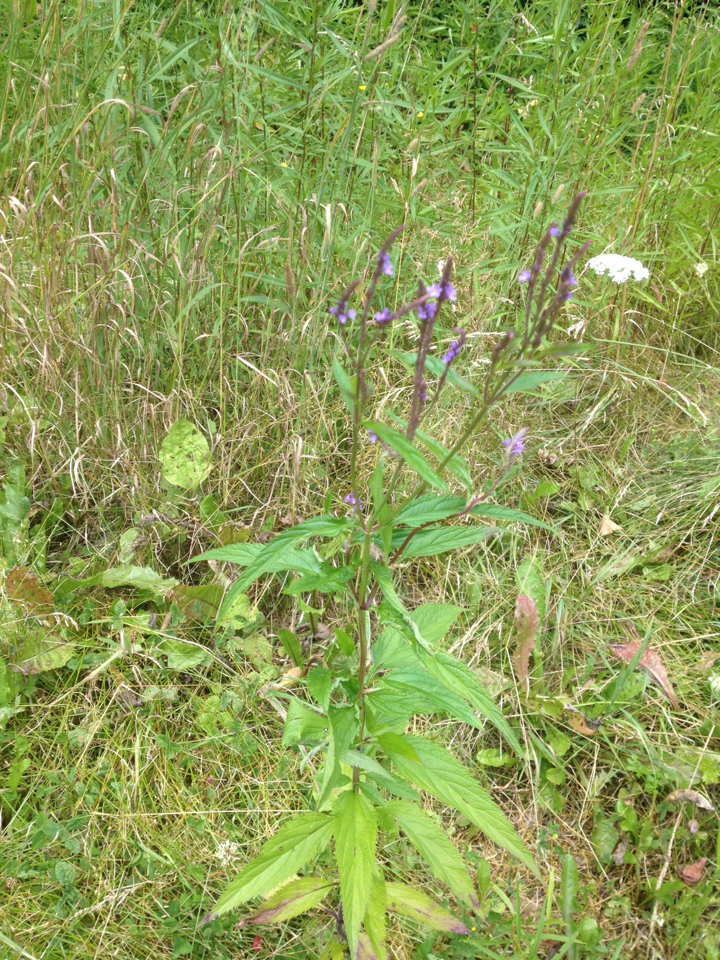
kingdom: Plantae
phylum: Tracheophyta
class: Magnoliopsida
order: Lamiales
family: Verbenaceae
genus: Verbena
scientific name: Verbena hastata
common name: American blue vervain
